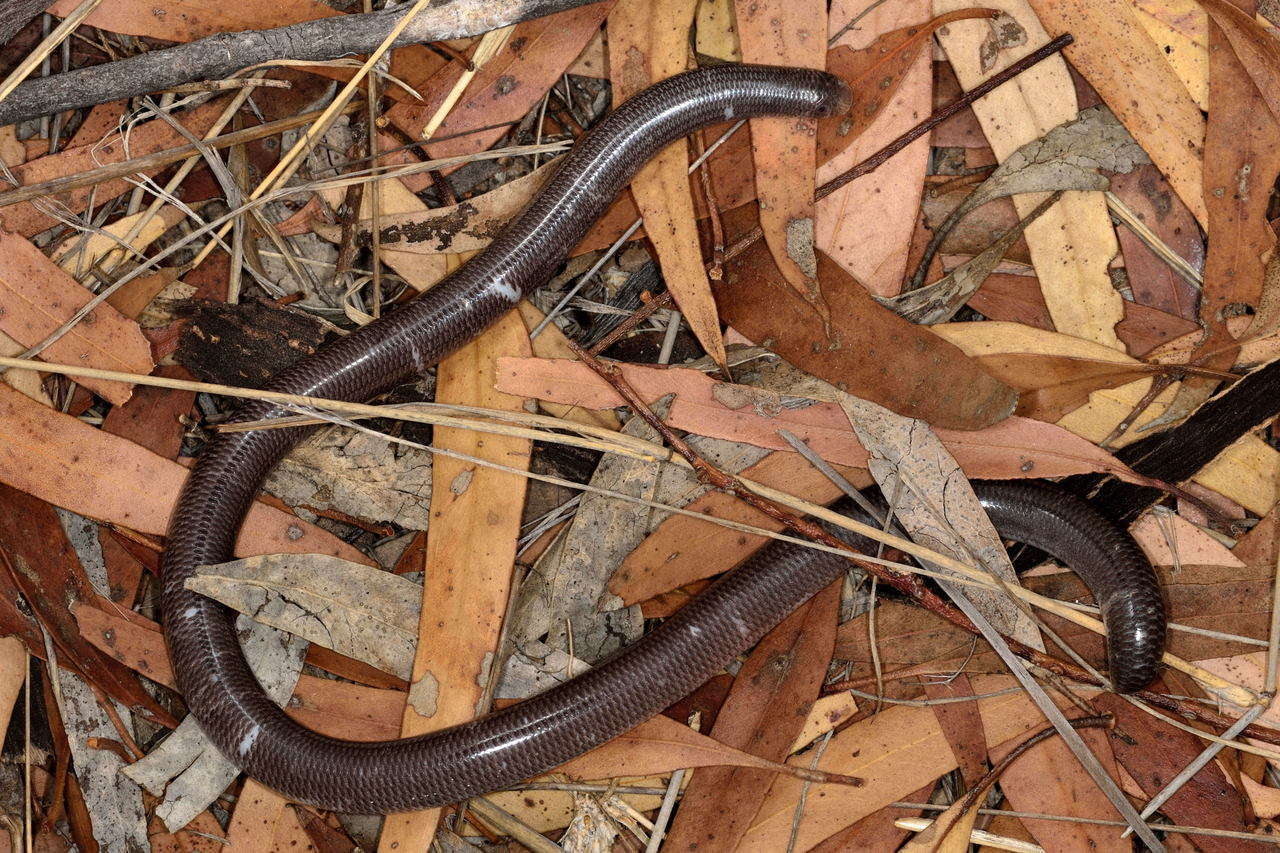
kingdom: Animalia
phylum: Chordata
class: Squamata
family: Typhlopidae
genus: Anilios
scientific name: Anilios bicolor
